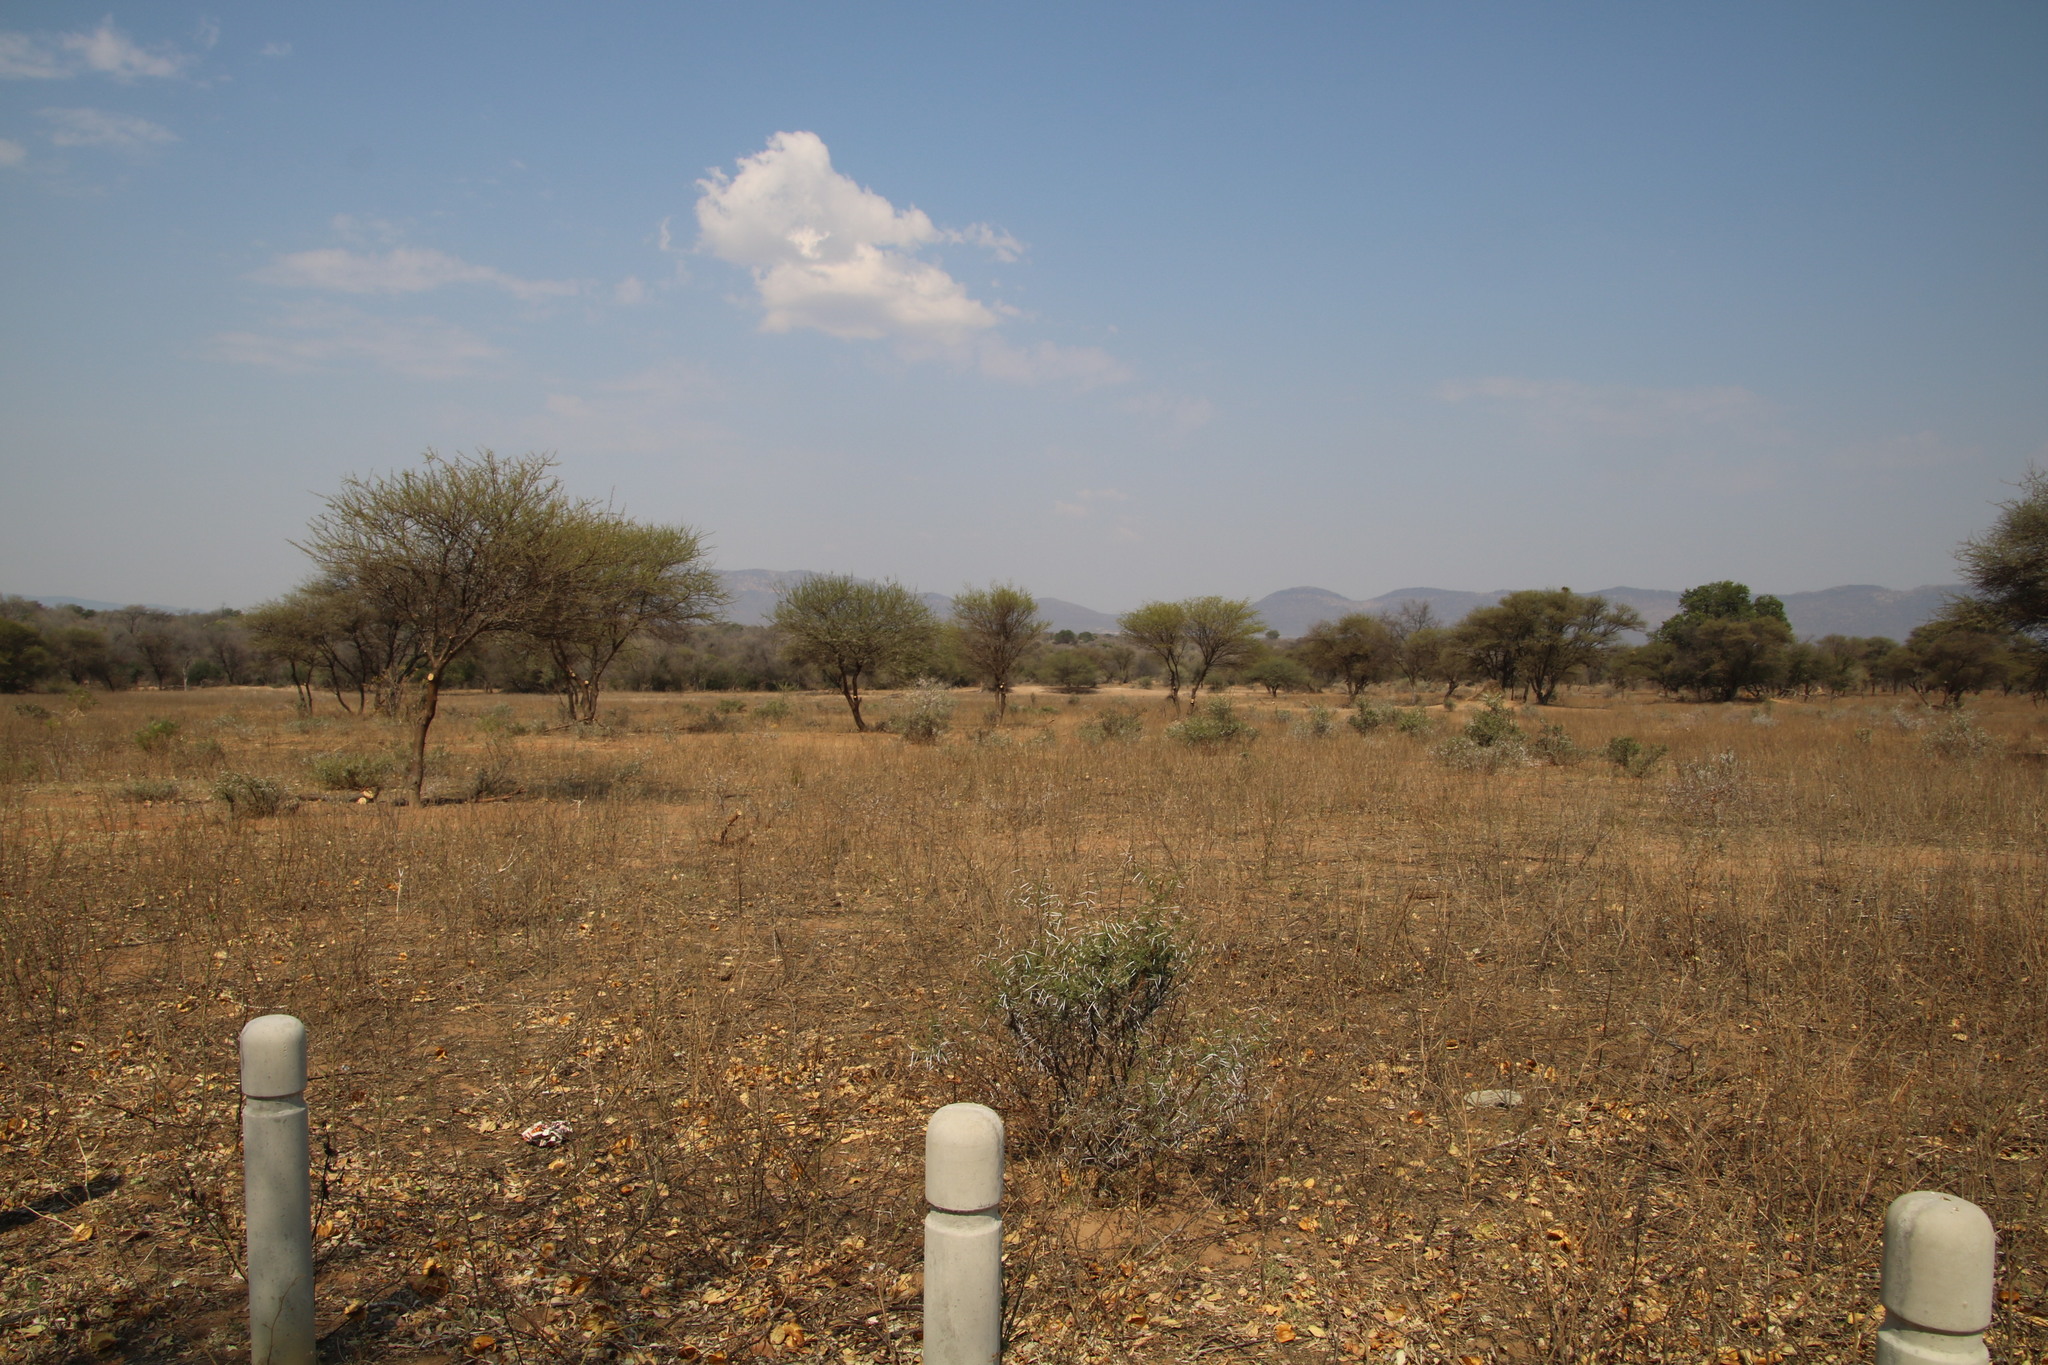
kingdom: Plantae
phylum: Tracheophyta
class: Magnoliopsida
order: Fabales
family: Fabaceae
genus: Vachellia
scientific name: Vachellia karroo
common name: Sweet thorn
